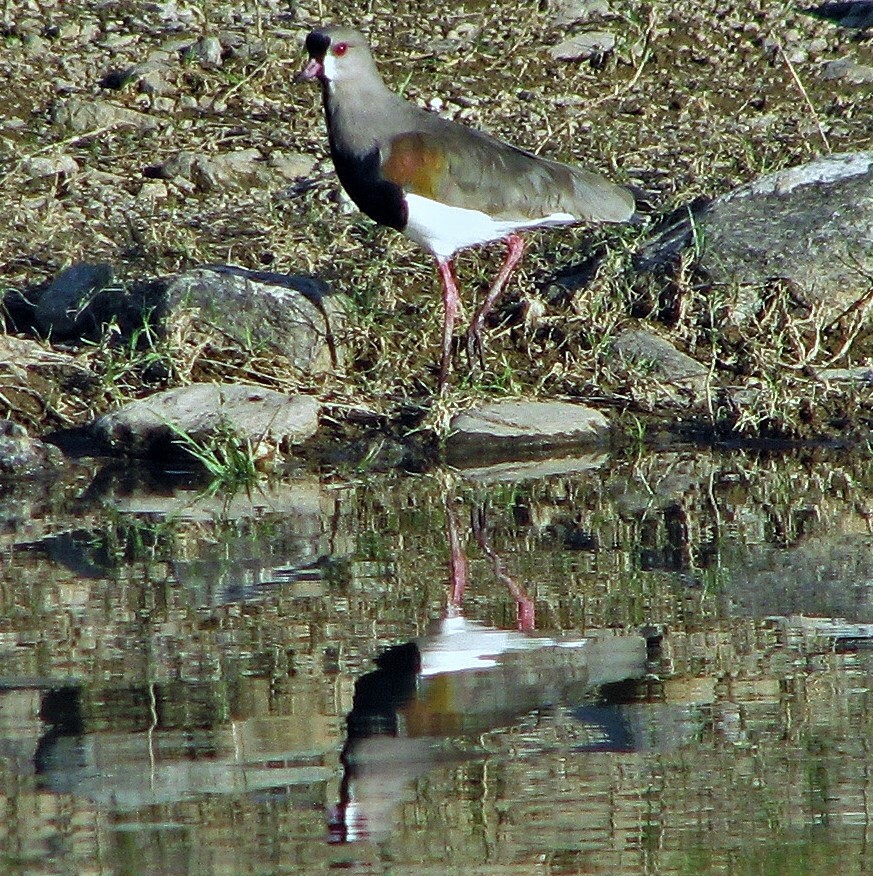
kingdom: Animalia
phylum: Chordata
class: Aves
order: Charadriiformes
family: Charadriidae
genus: Vanellus
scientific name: Vanellus chilensis
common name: Southern lapwing
